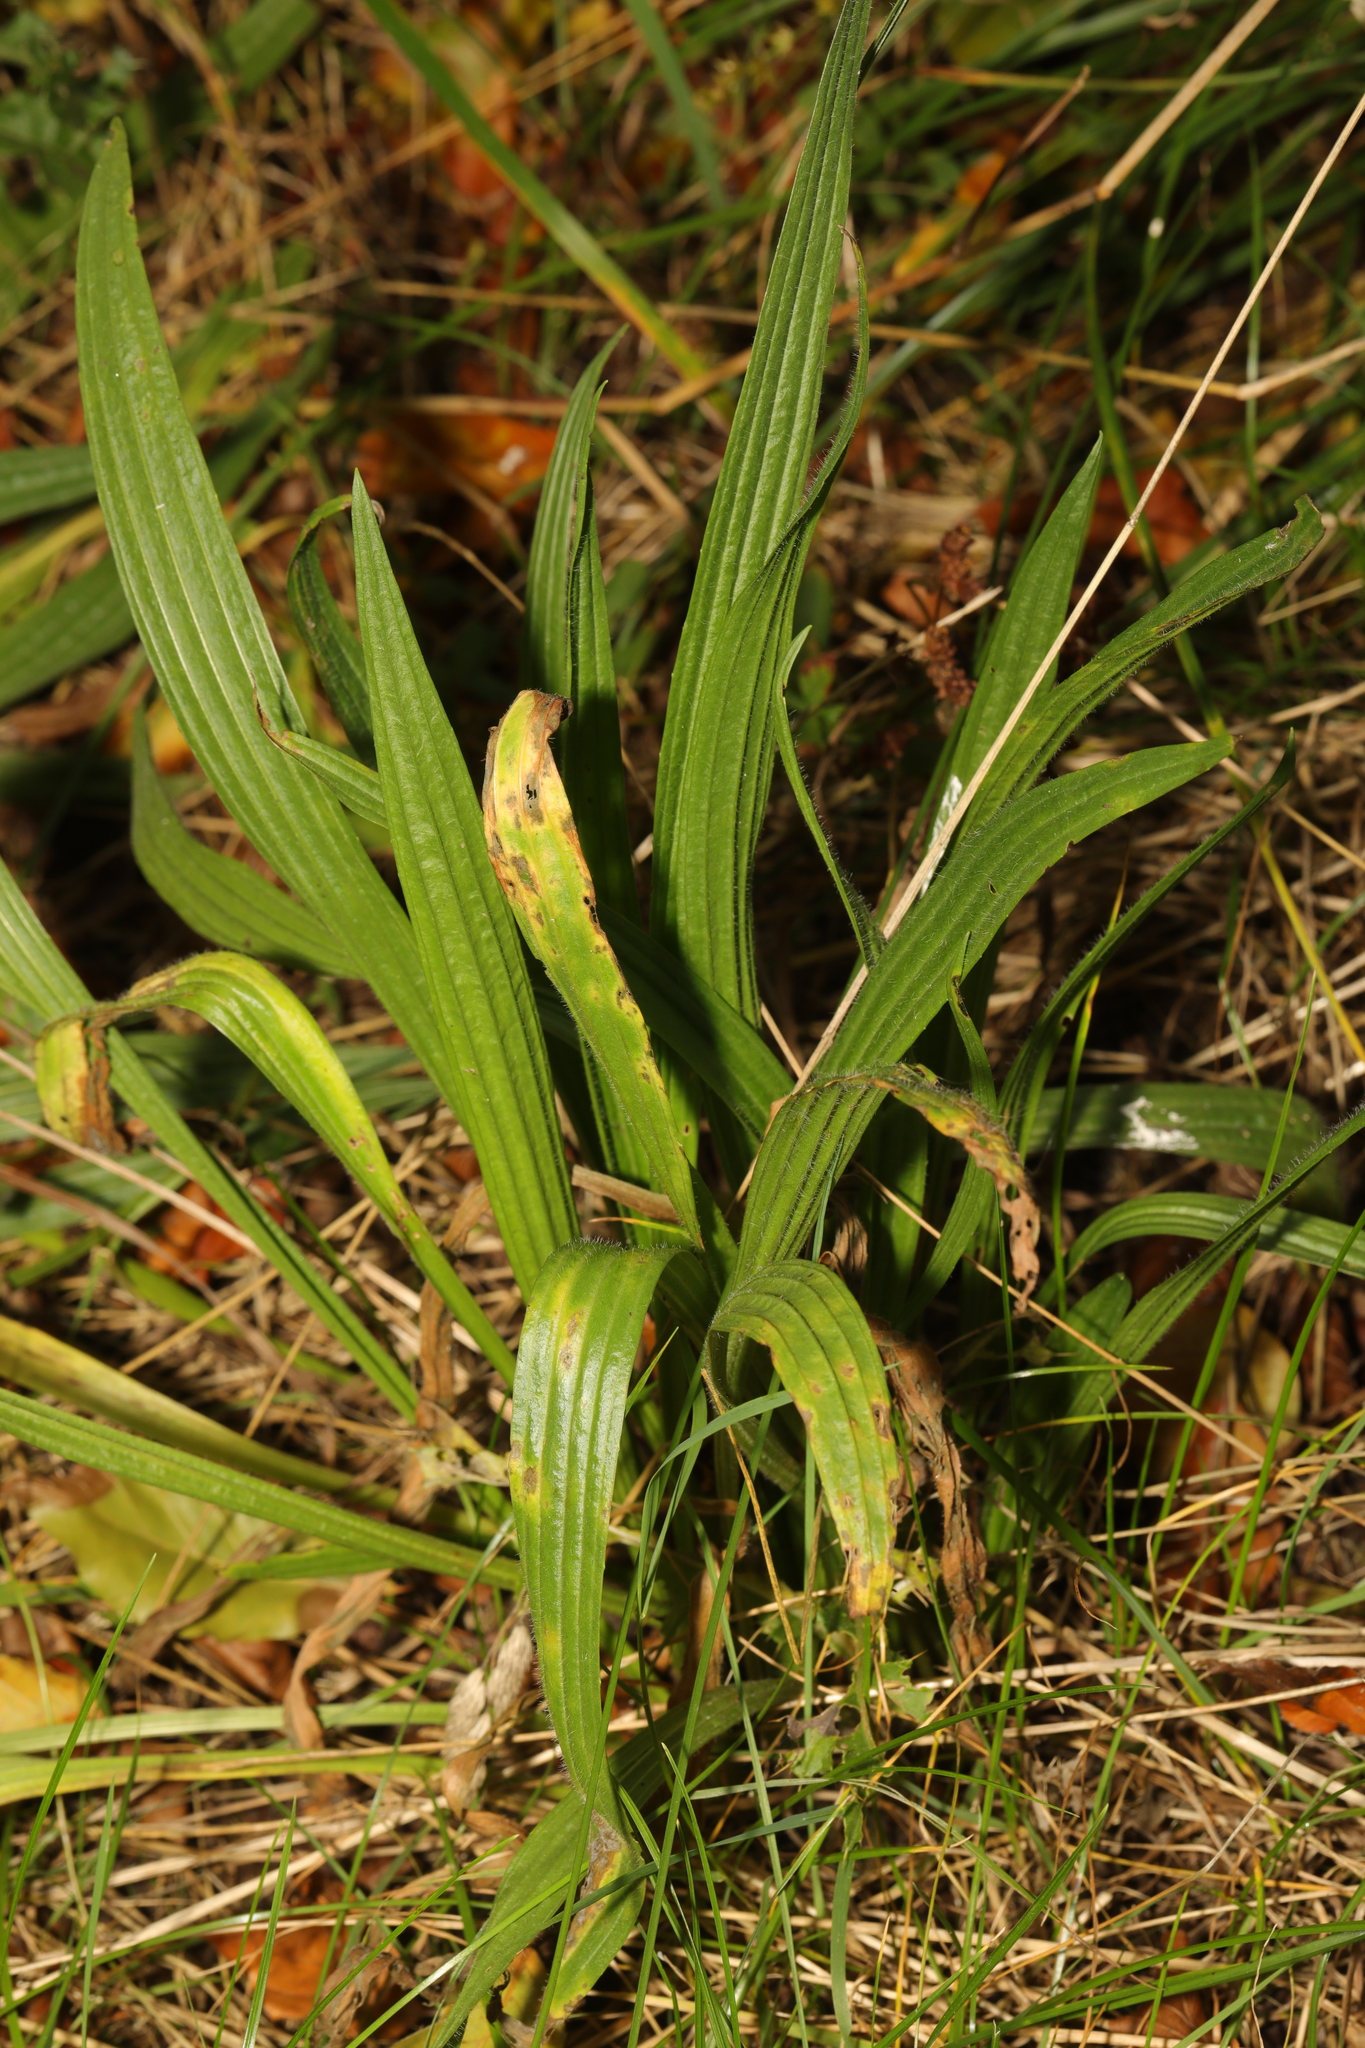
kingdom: Plantae
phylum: Tracheophyta
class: Magnoliopsida
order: Lamiales
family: Plantaginaceae
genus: Plantago
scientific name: Plantago lanceolata
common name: Ribwort plantain
